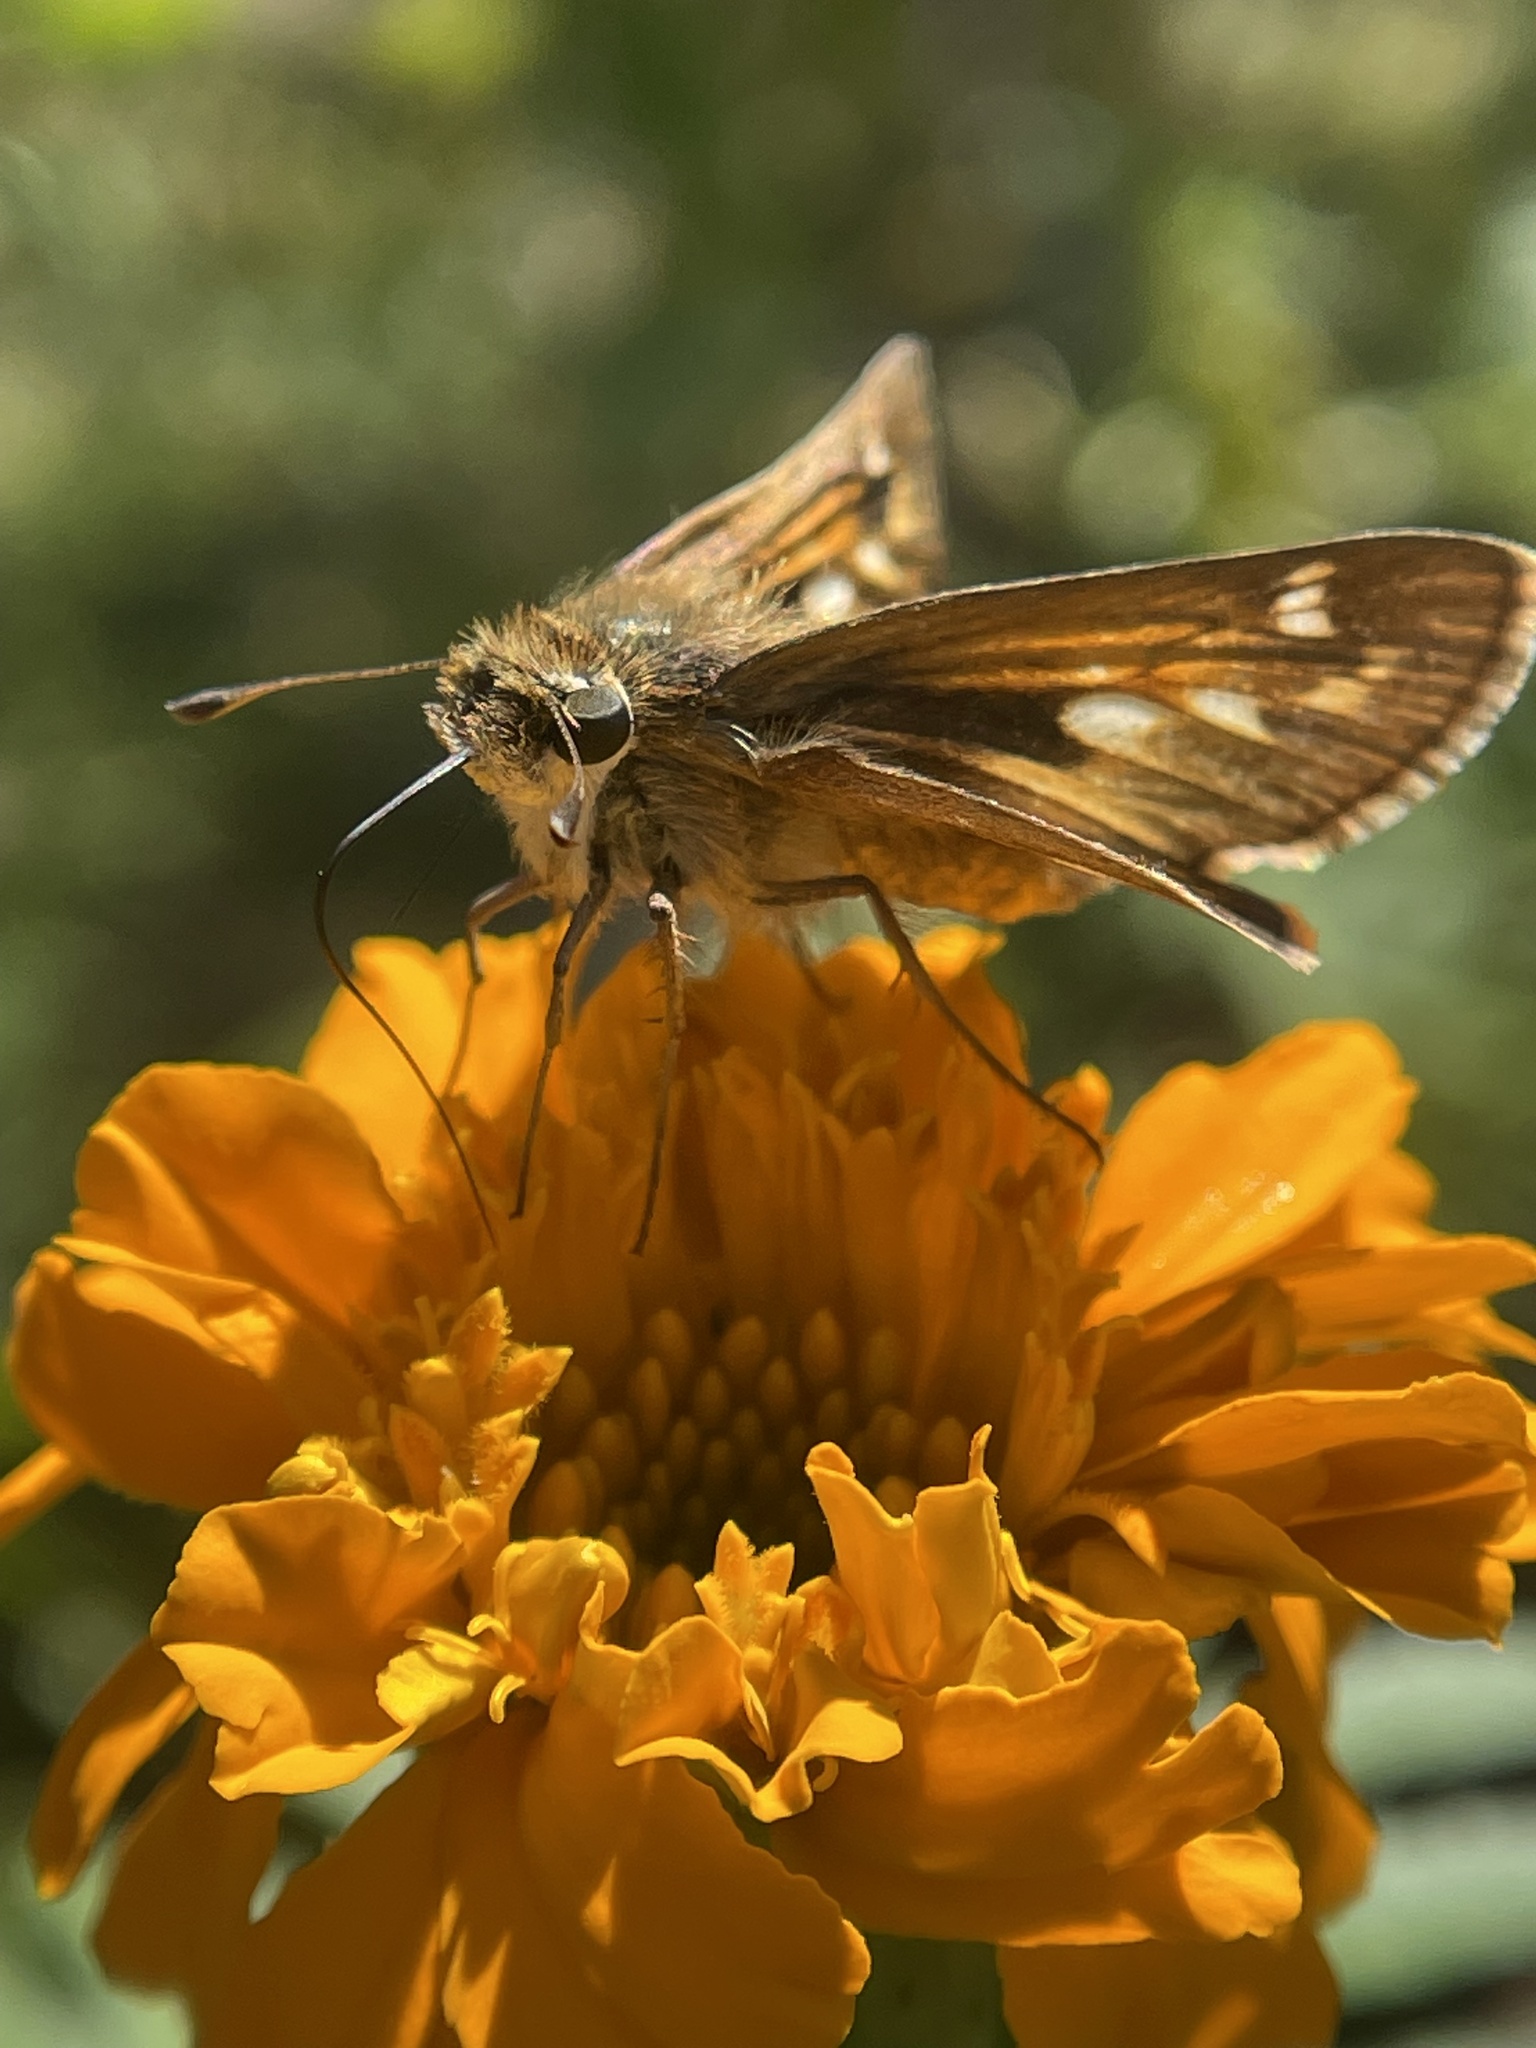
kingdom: Animalia
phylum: Arthropoda
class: Insecta
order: Lepidoptera
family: Hesperiidae
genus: Atalopedes
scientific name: Atalopedes
